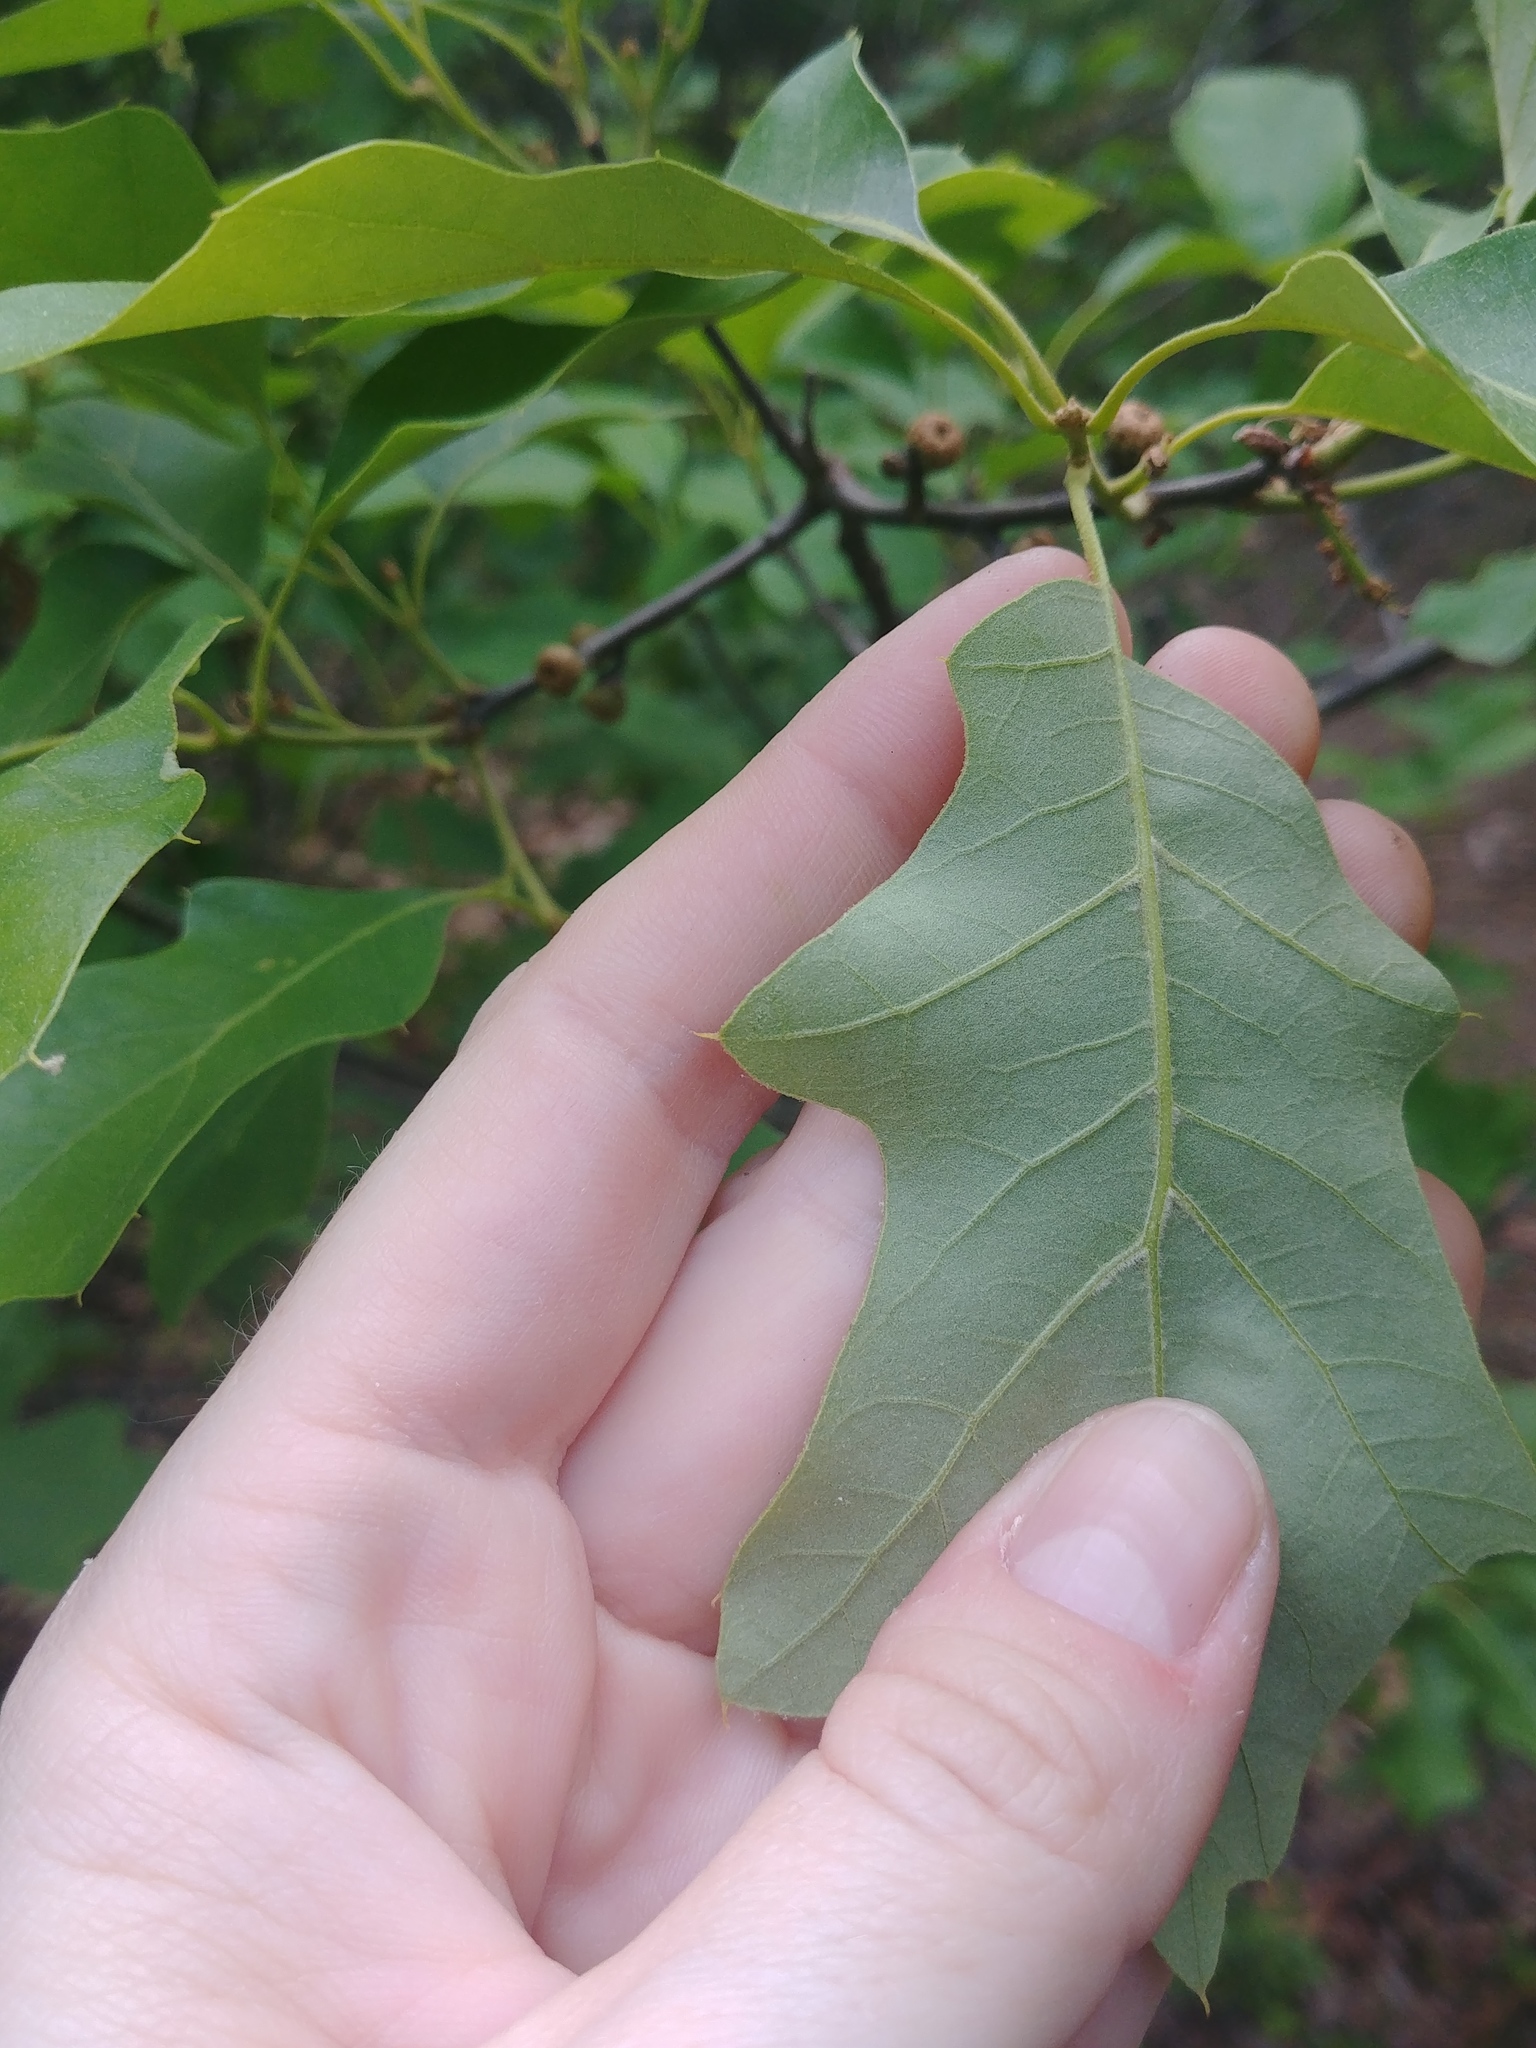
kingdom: Plantae
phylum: Tracheophyta
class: Magnoliopsida
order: Fagales
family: Fagaceae
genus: Quercus
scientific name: Quercus ilicifolia
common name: Bear oak
